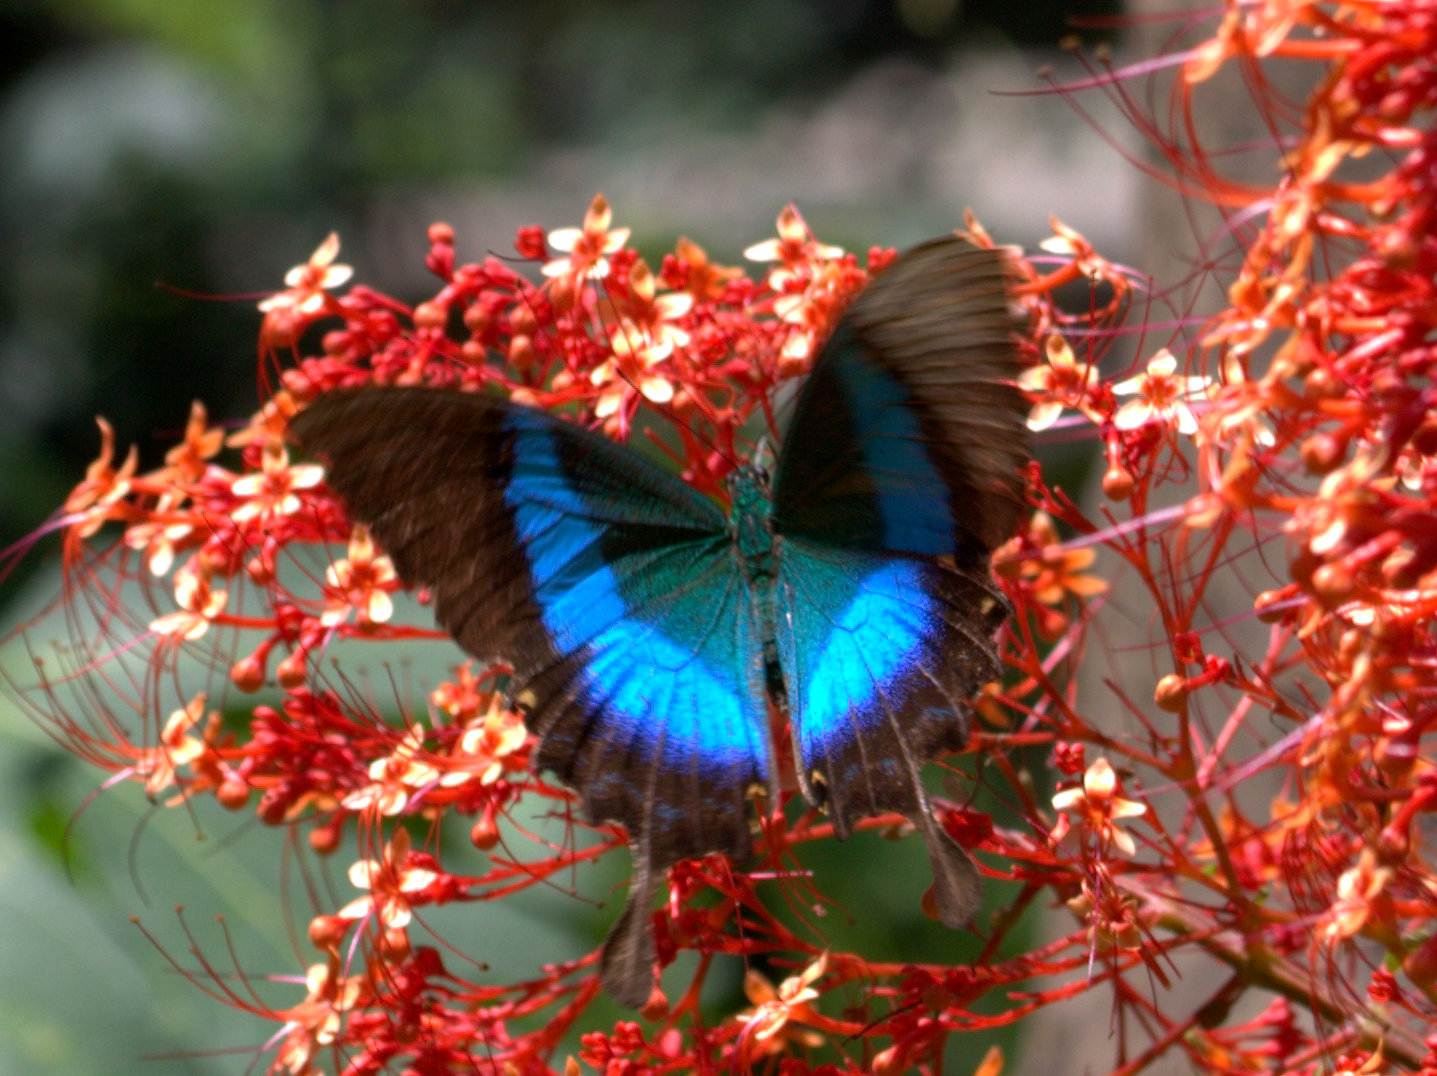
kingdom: Animalia
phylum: Arthropoda
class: Insecta
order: Lepidoptera
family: Papilionidae
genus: Papilio
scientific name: Papilio buddha
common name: Malabar banded peacock
